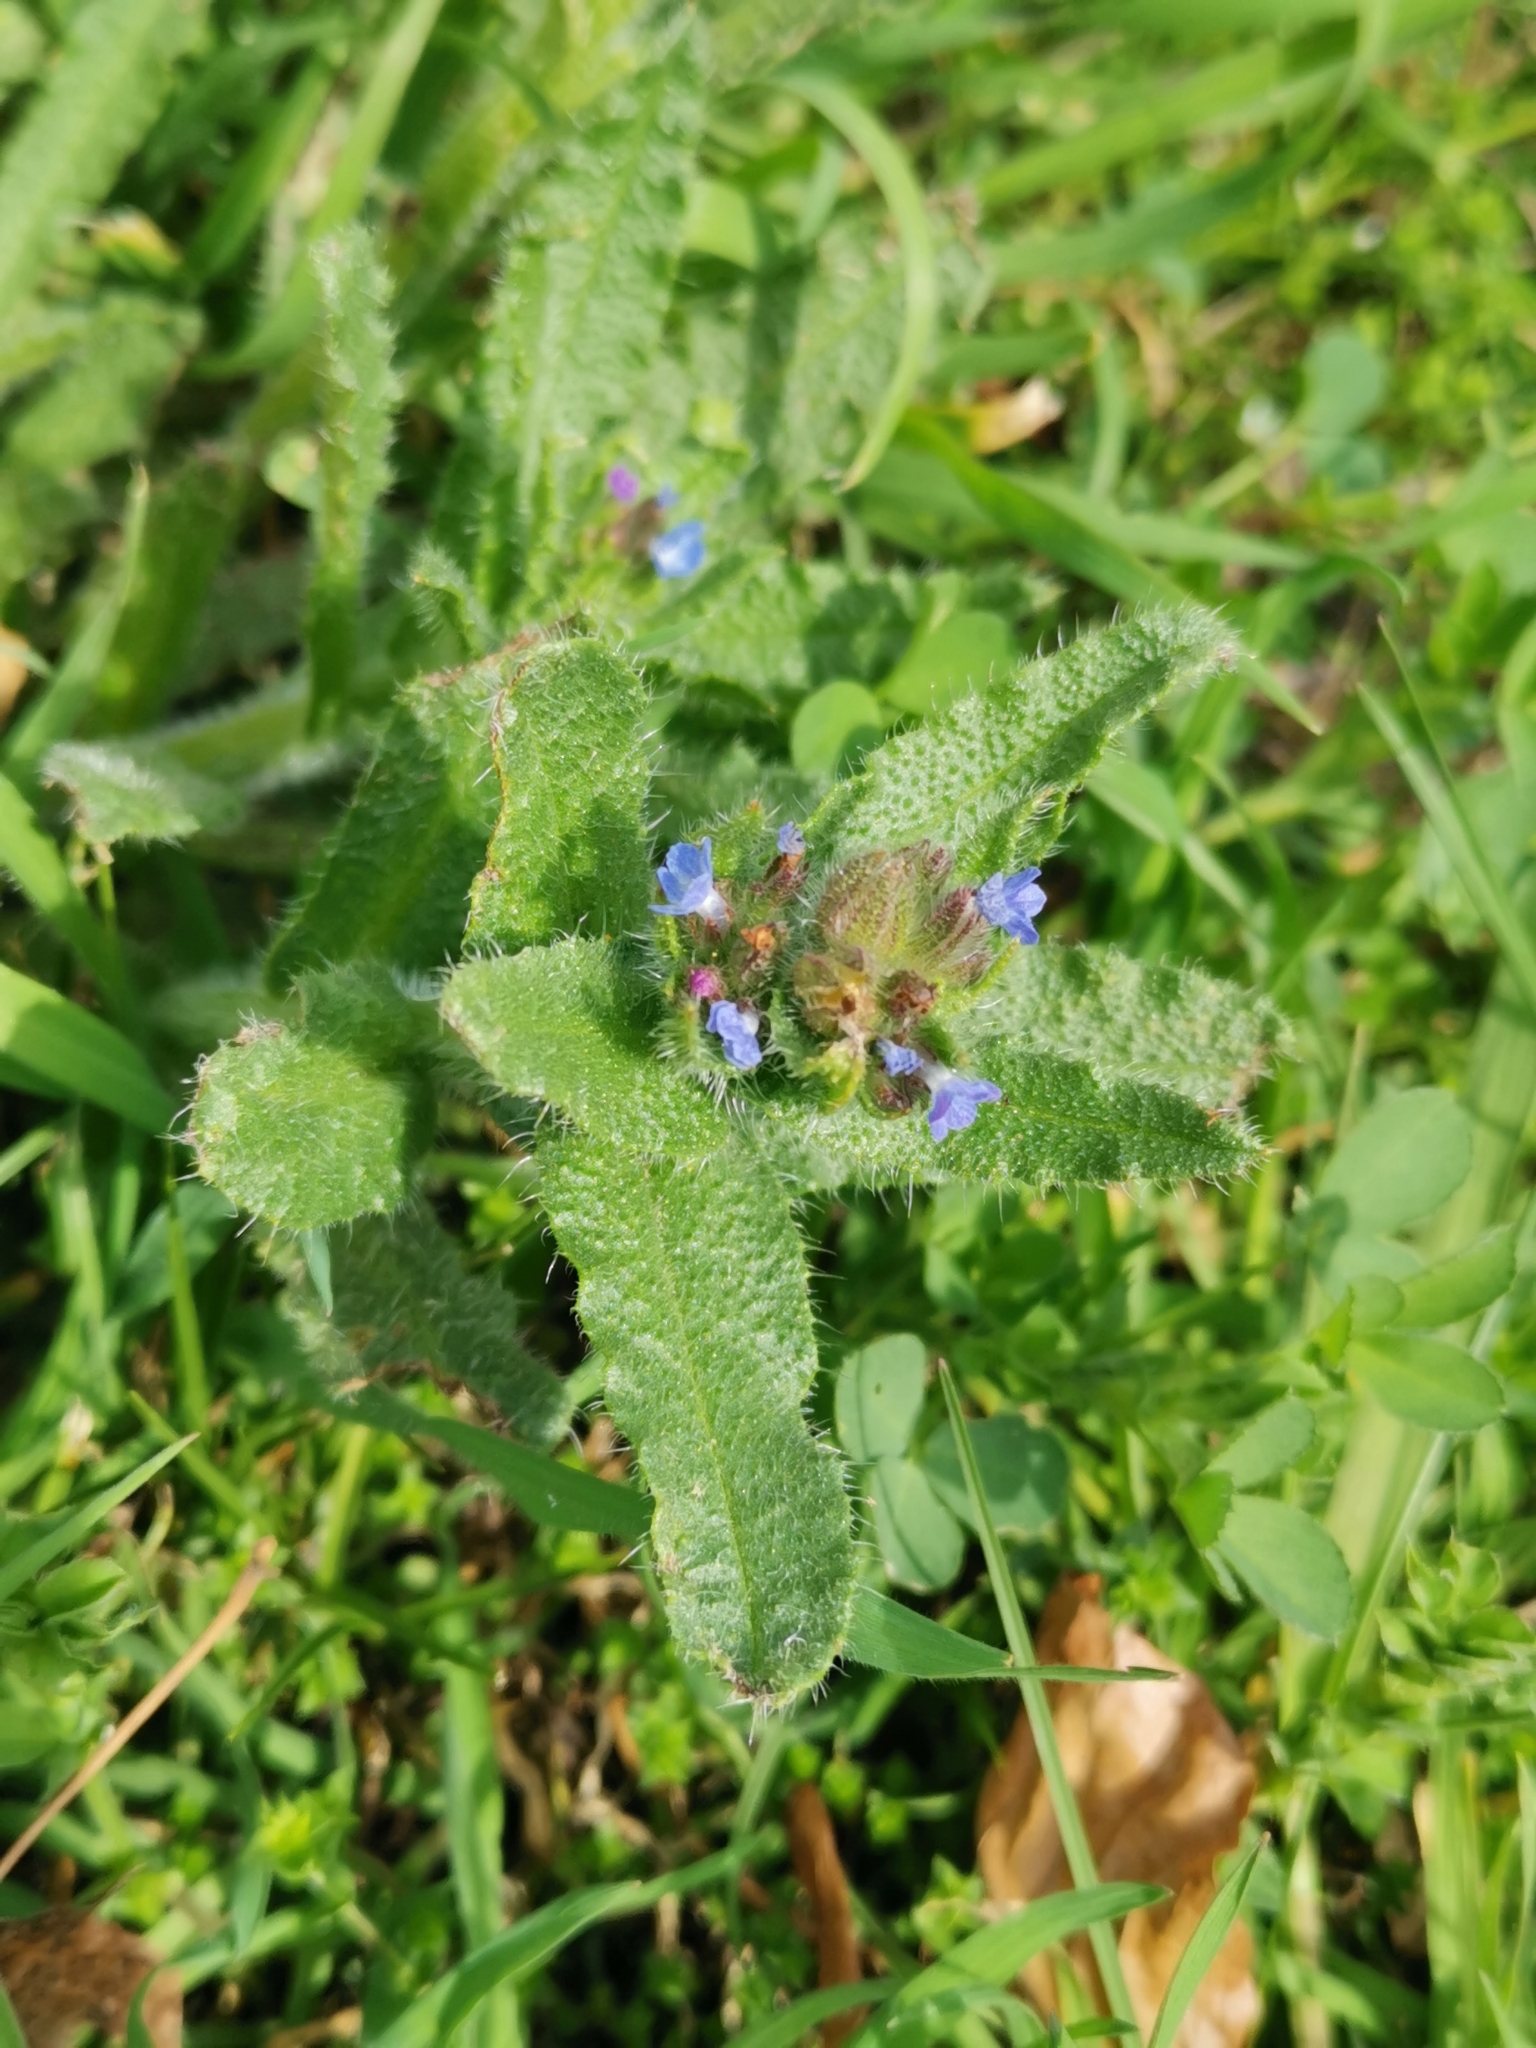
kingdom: Plantae
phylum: Tracheophyta
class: Magnoliopsida
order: Boraginales
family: Boraginaceae
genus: Lycopsis
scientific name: Lycopsis arvensis
